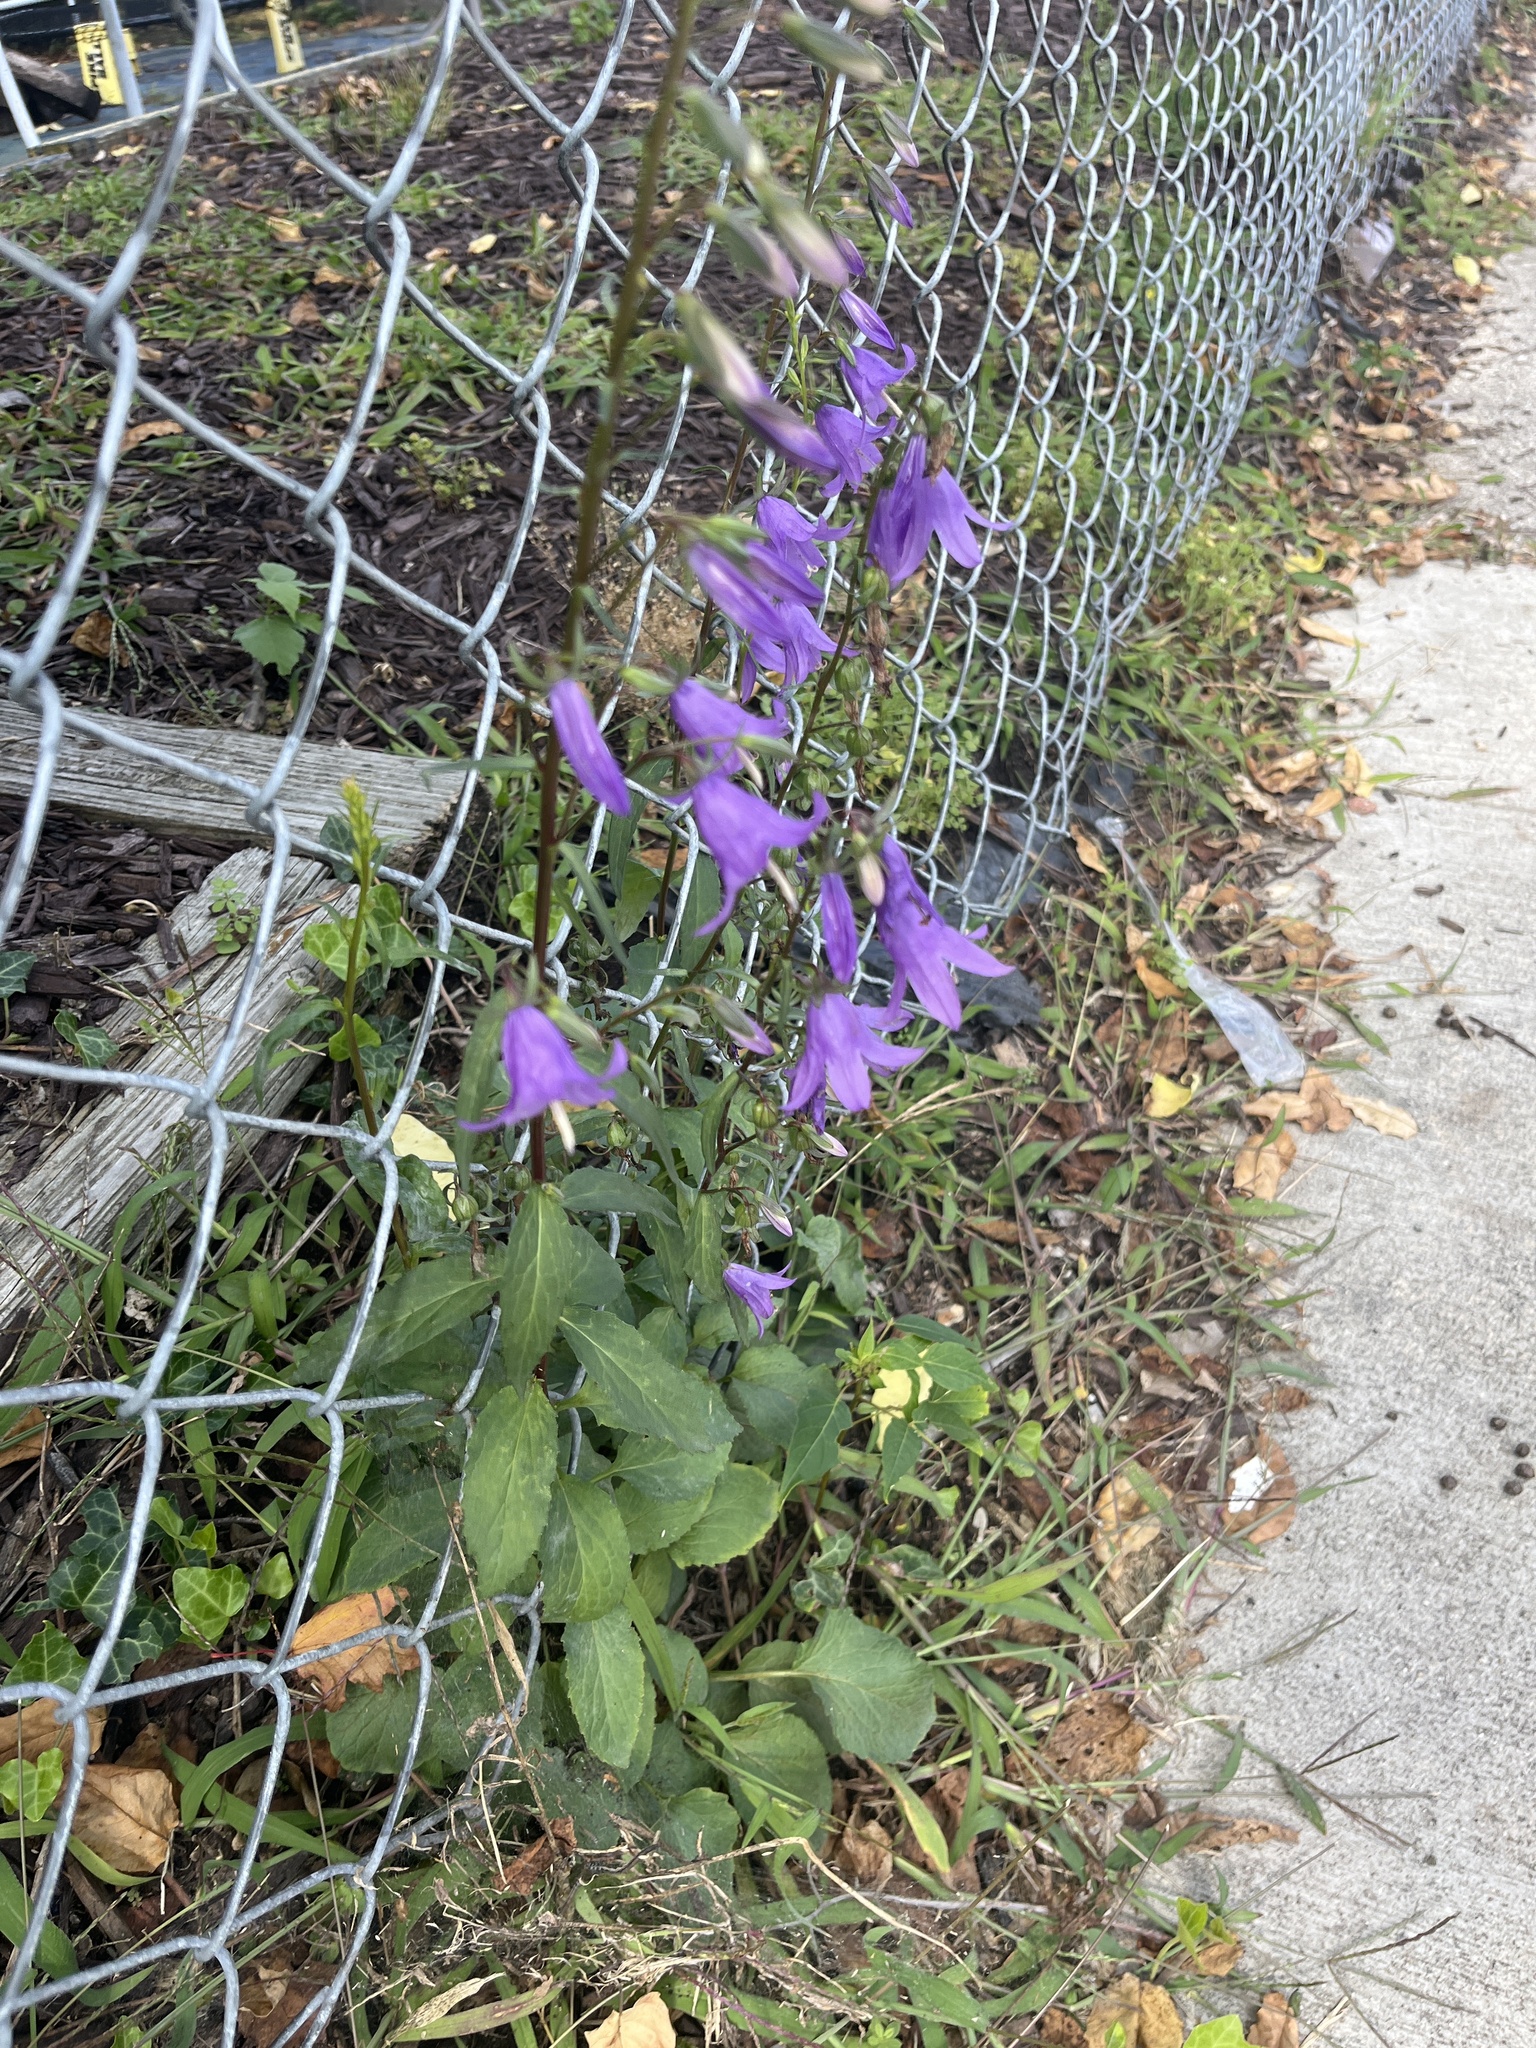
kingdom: Plantae
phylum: Tracheophyta
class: Magnoliopsida
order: Asterales
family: Campanulaceae
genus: Campanula
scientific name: Campanula rapunculoides
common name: Creeping bellflower
